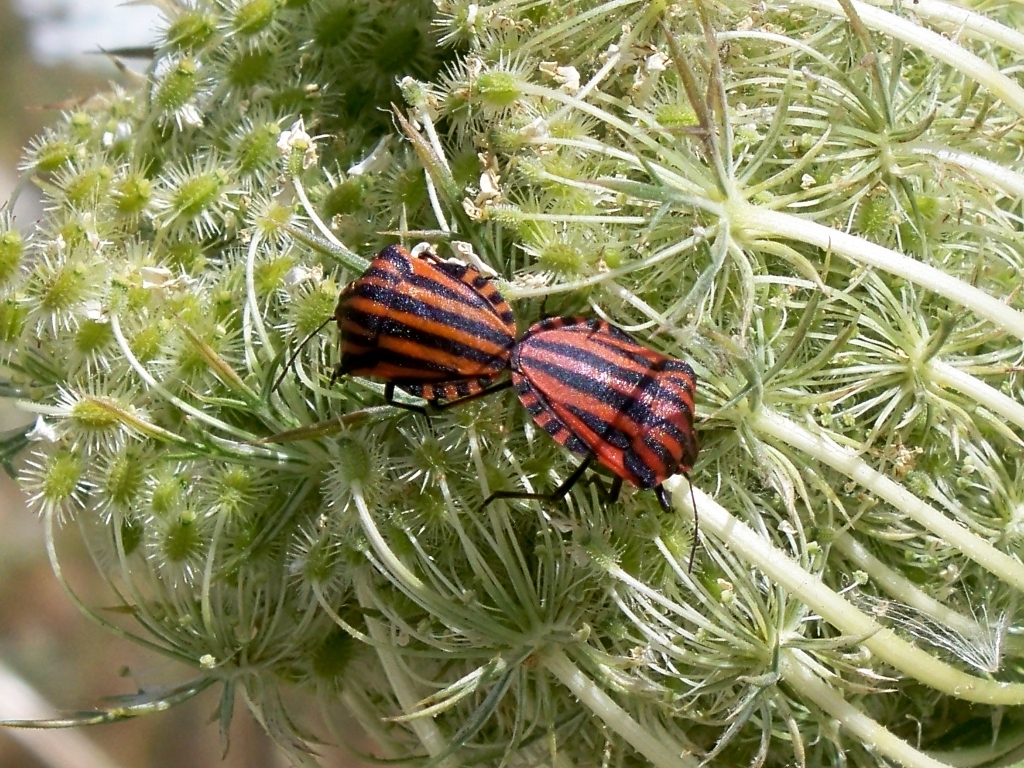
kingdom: Animalia
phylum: Arthropoda
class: Insecta
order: Hemiptera
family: Pentatomidae
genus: Graphosoma
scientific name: Graphosoma italicum
